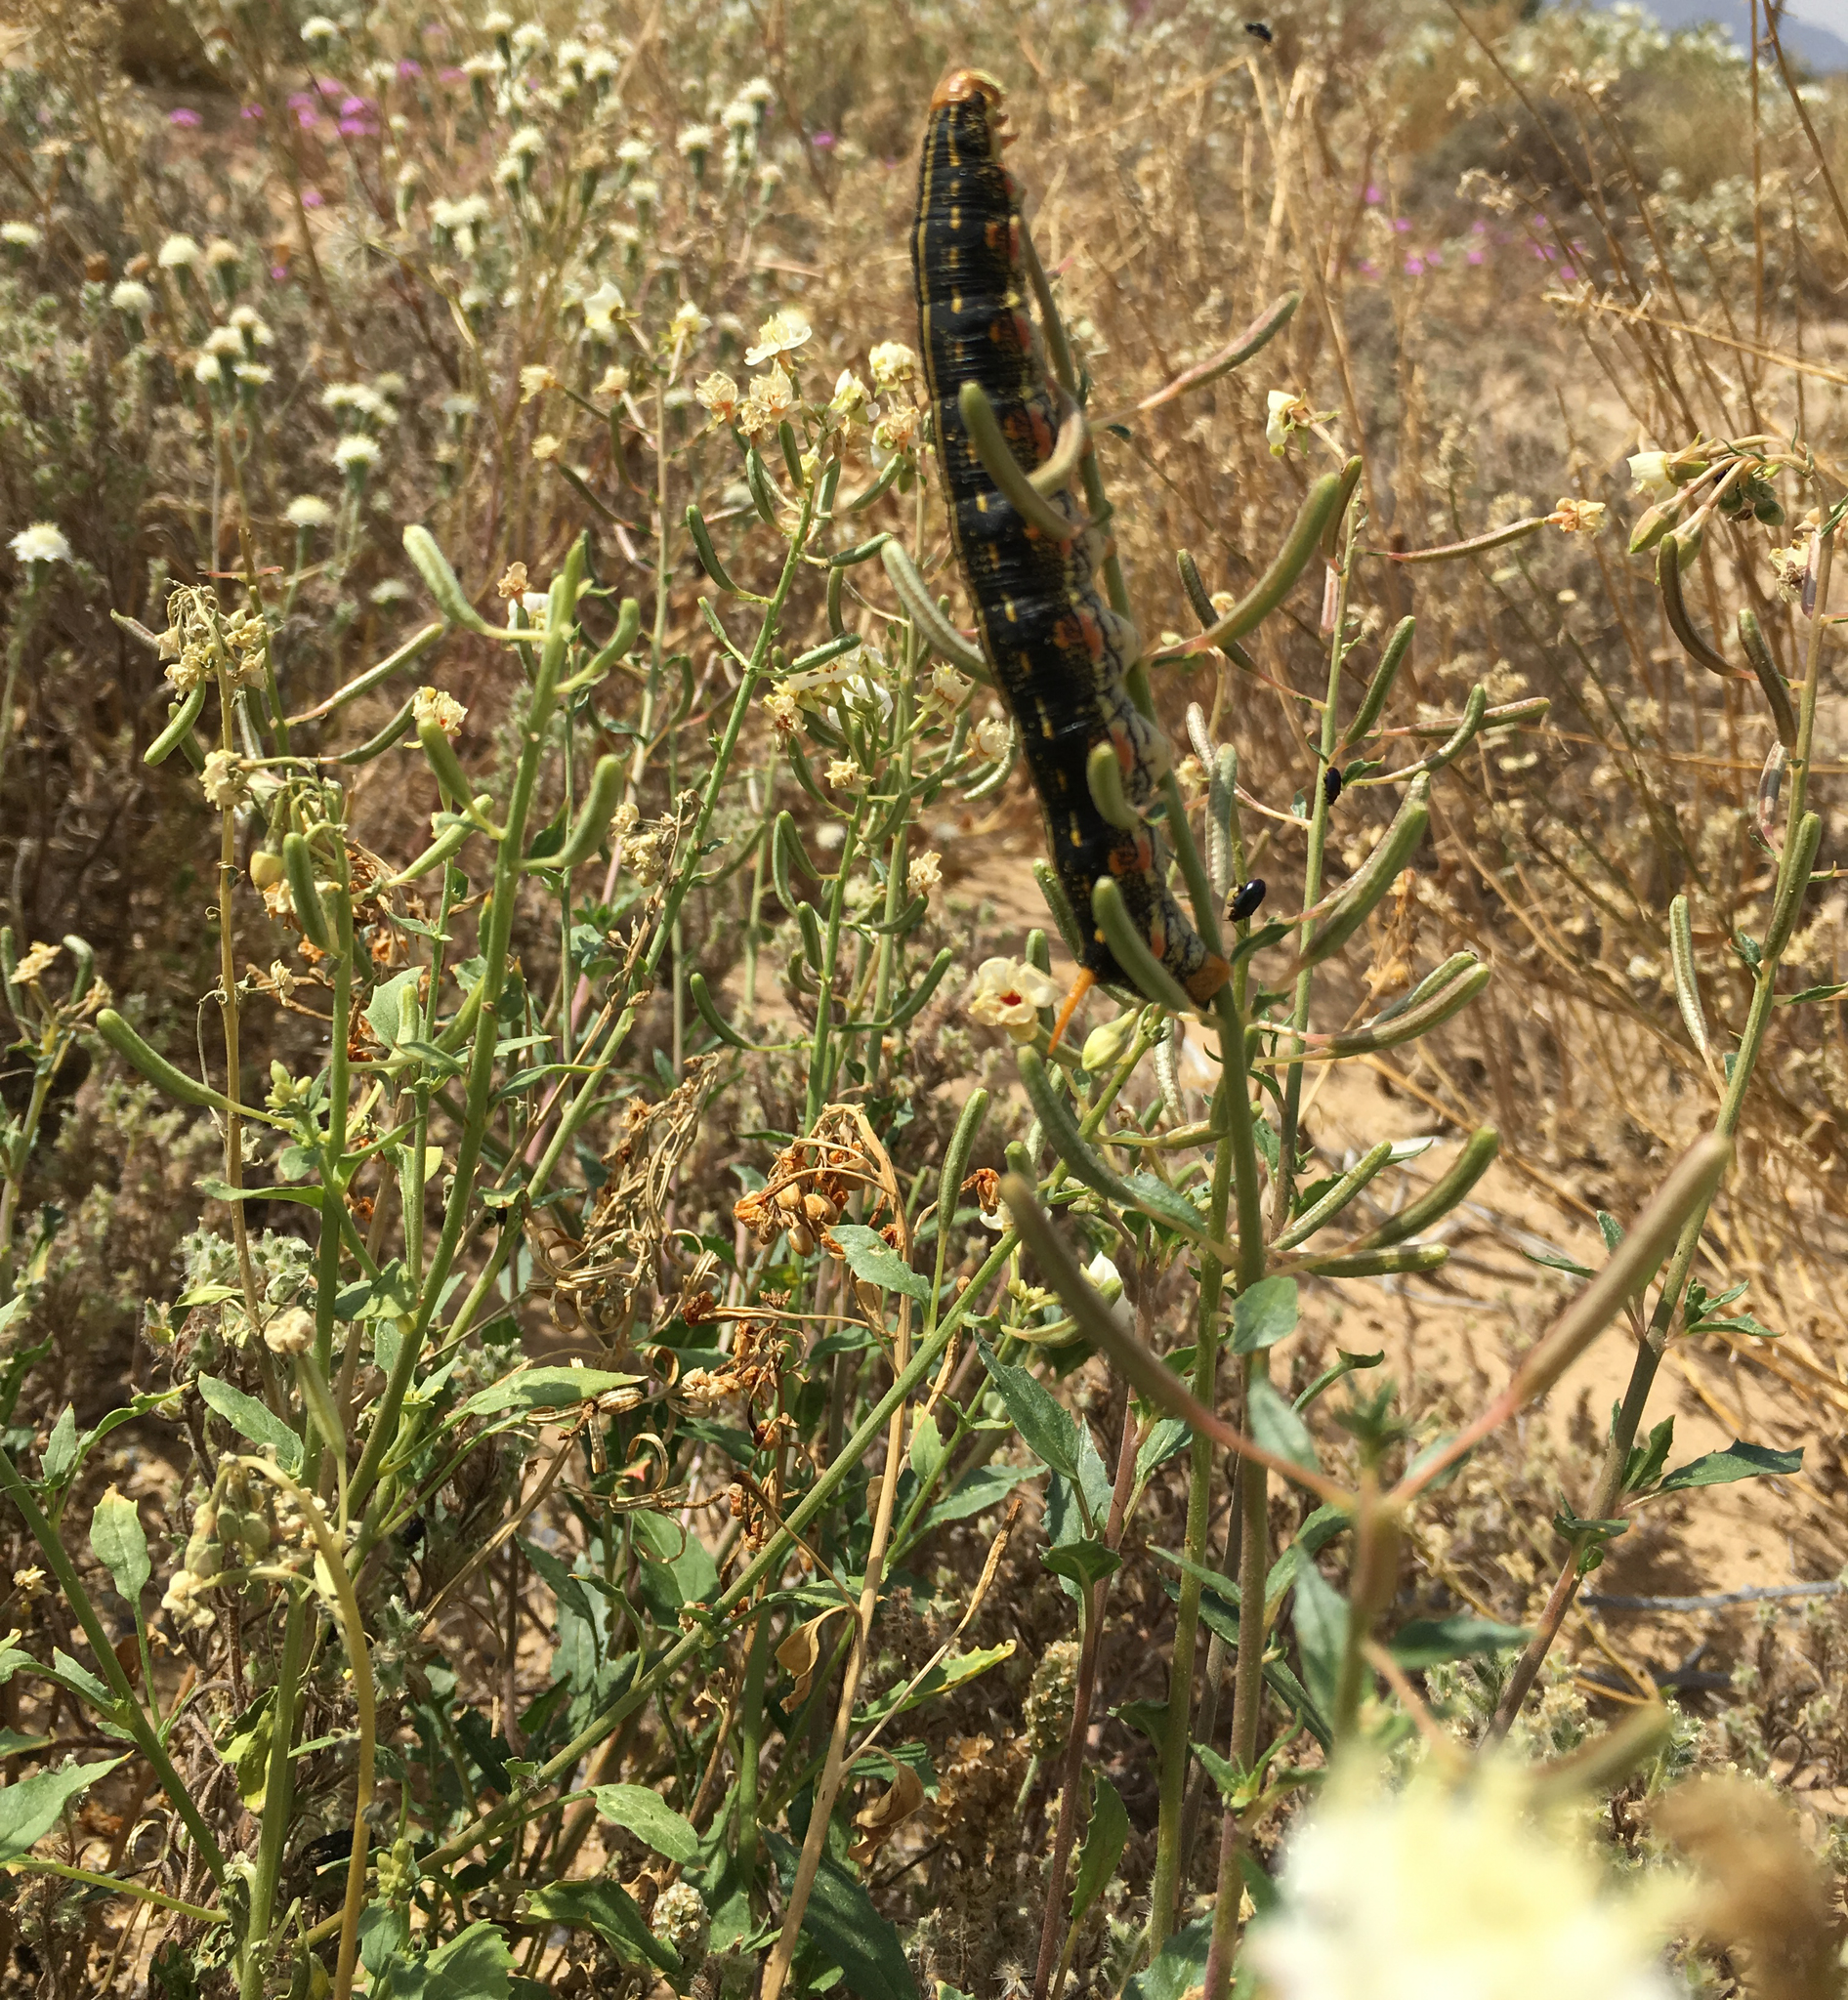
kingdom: Animalia
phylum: Arthropoda
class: Insecta
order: Lepidoptera
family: Sphingidae
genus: Hyles
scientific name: Hyles lineata
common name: White-lined sphinx
